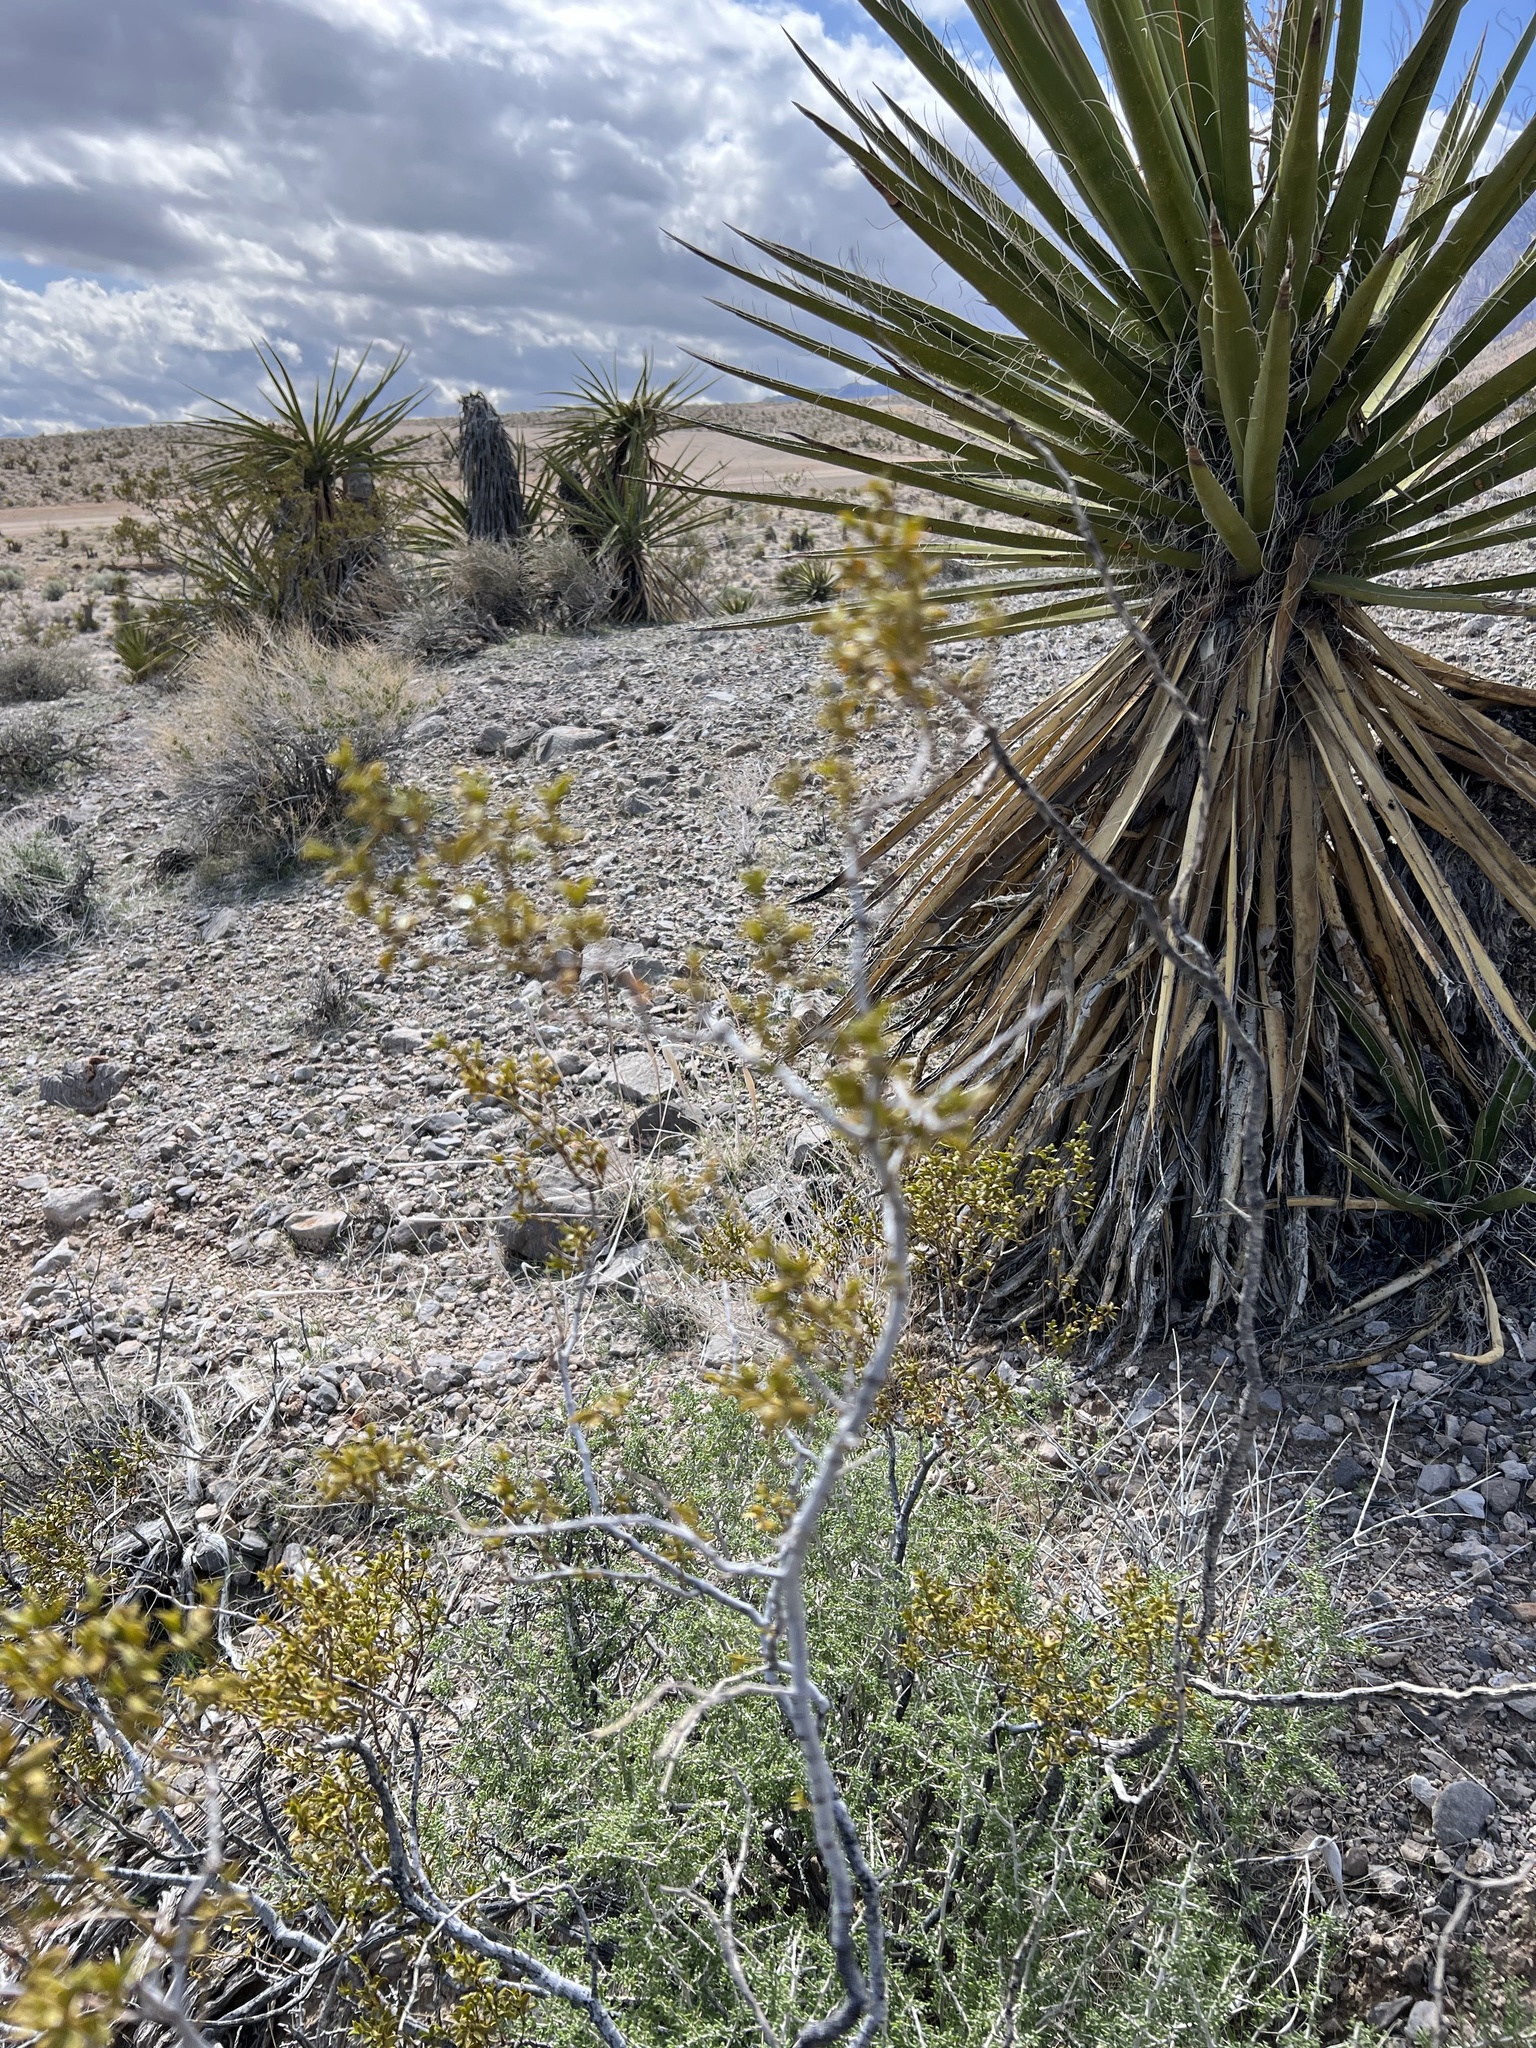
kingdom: Plantae
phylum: Tracheophyta
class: Magnoliopsida
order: Zygophyllales
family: Zygophyllaceae
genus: Larrea
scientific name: Larrea tridentata
